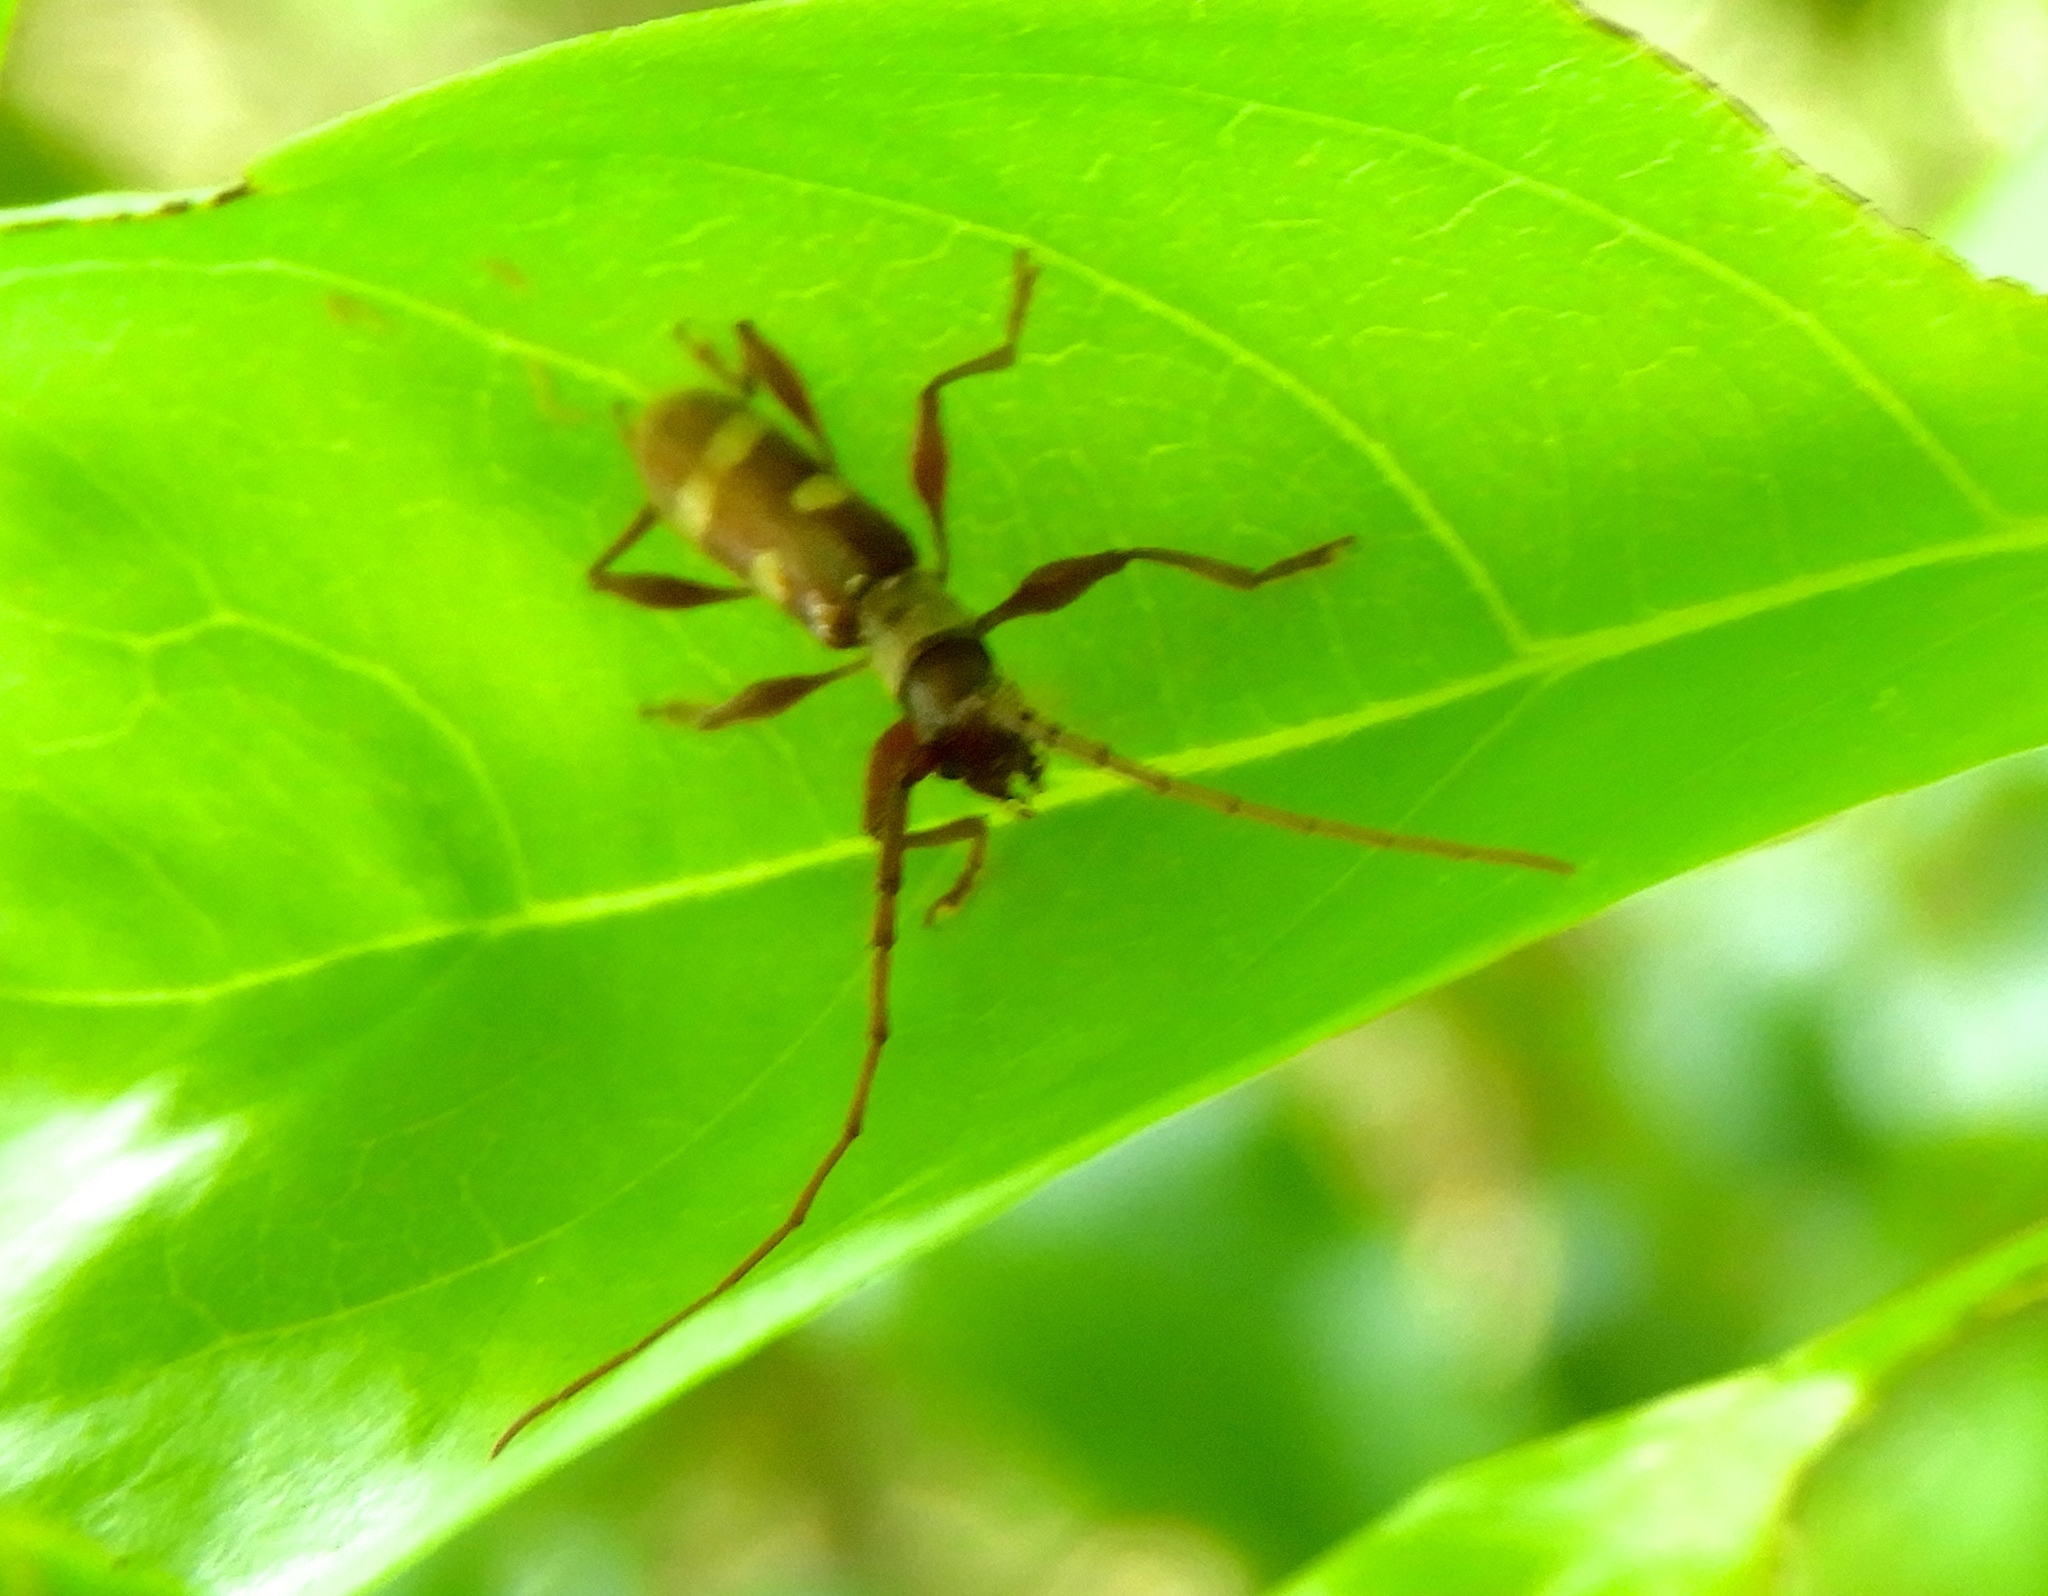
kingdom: Animalia
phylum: Arthropoda
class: Insecta
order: Coleoptera
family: Cerambycidae
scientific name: Cerambycidae
